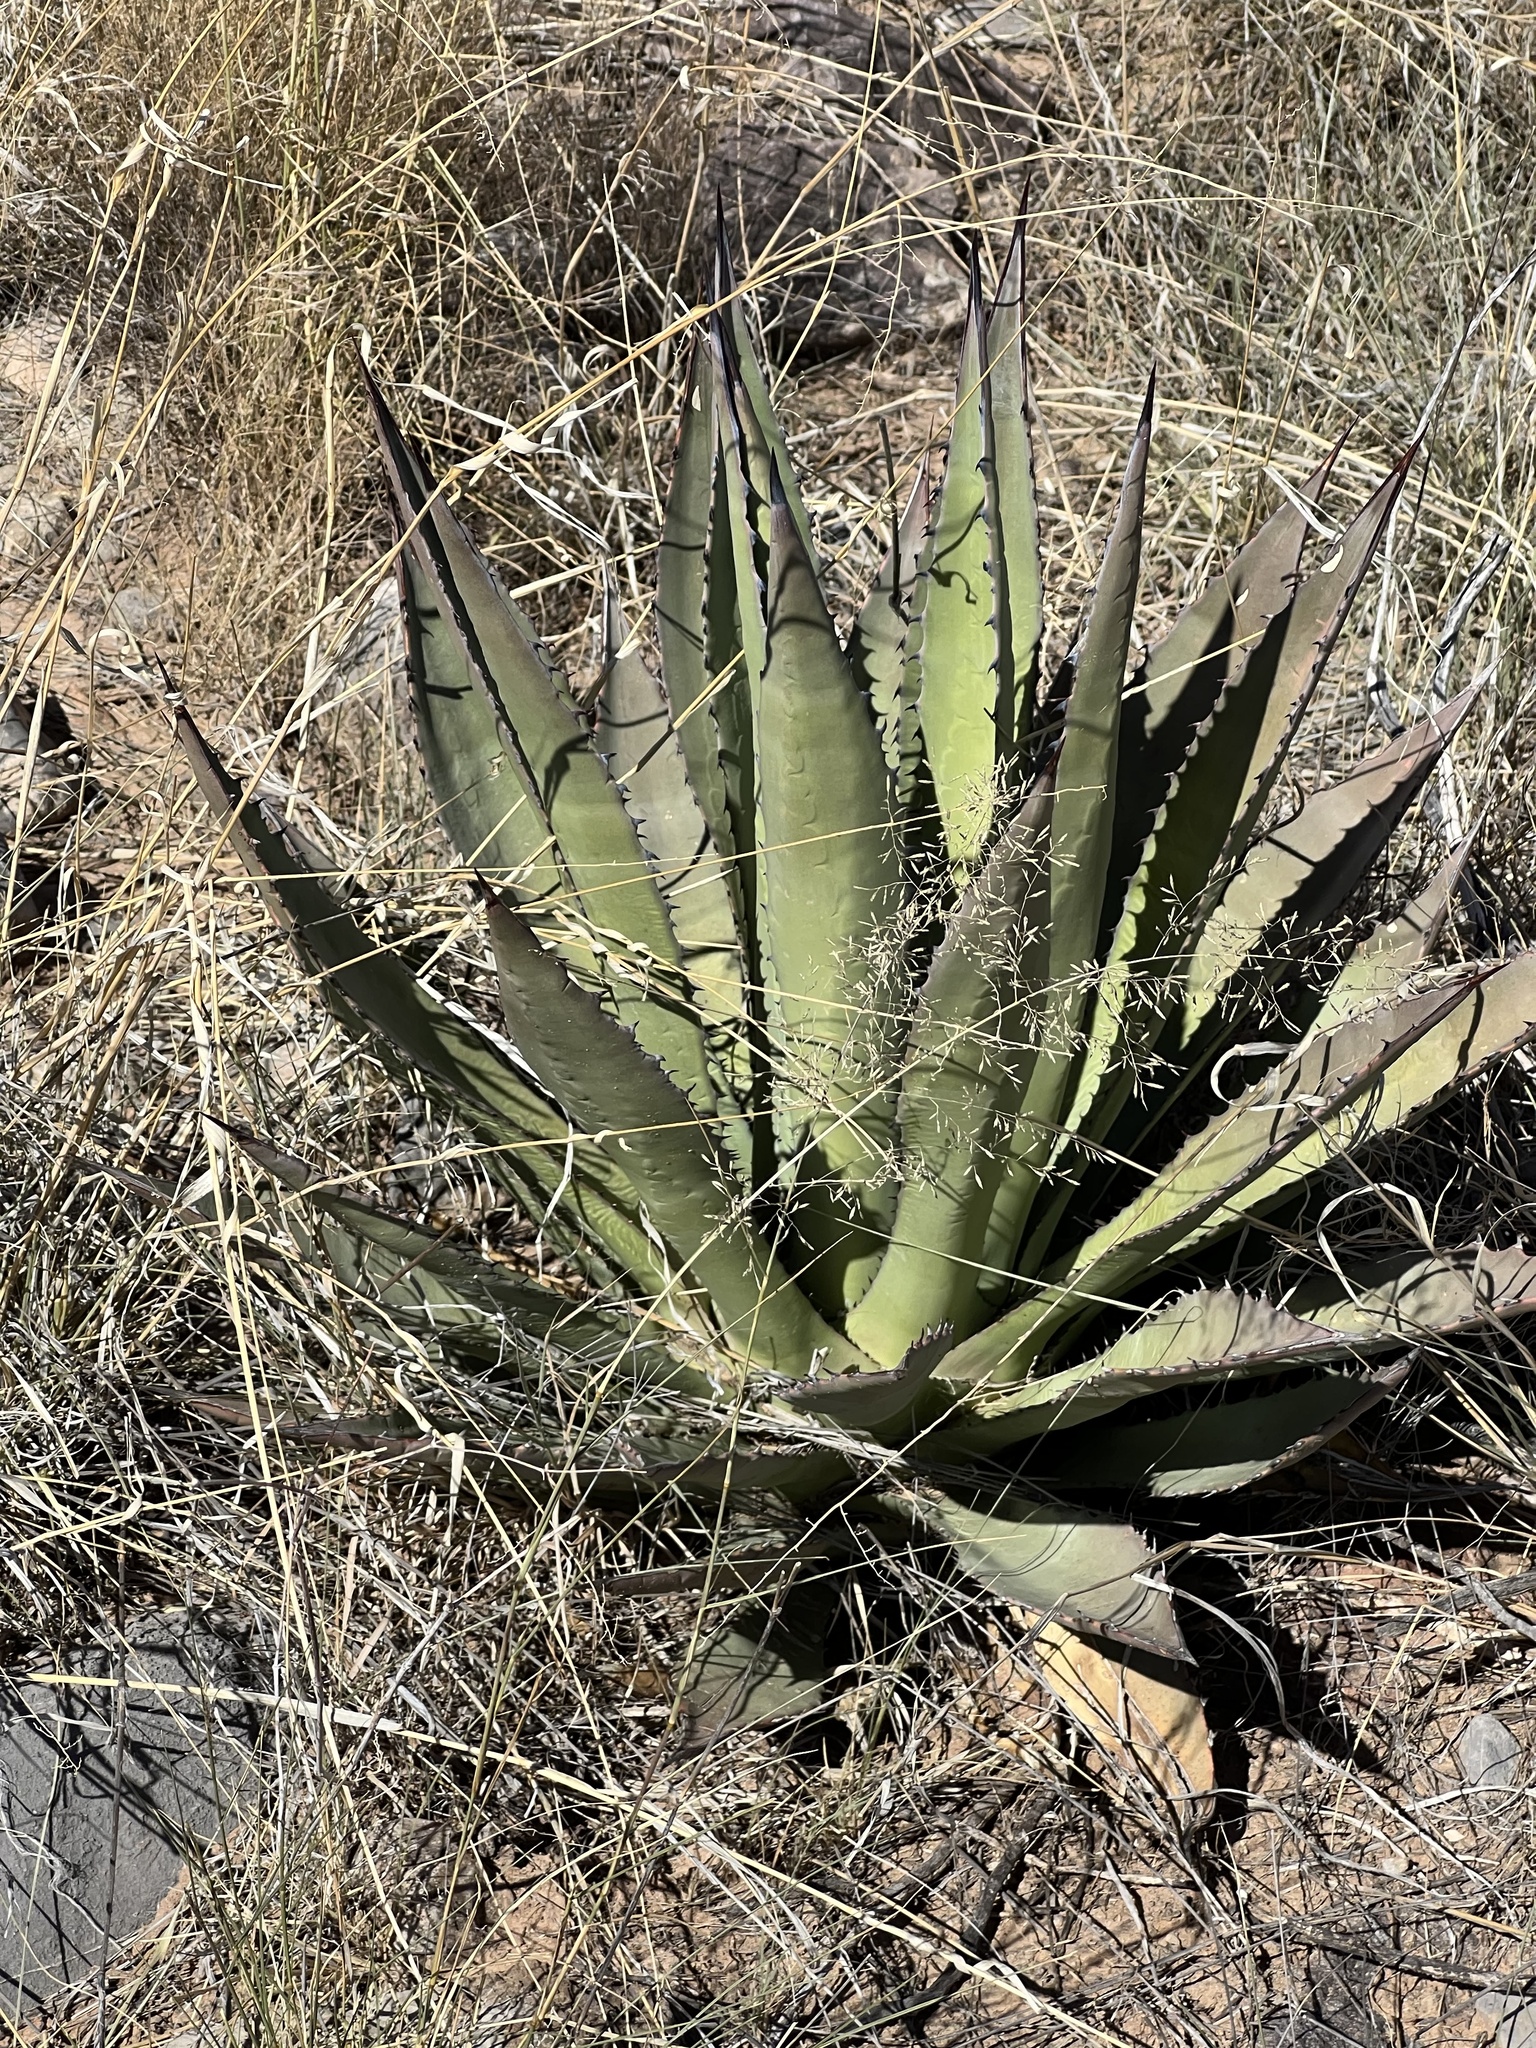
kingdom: Plantae
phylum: Tracheophyta
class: Liliopsida
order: Asparagales
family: Asparagaceae
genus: Agave
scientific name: Agave palmeri
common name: Palmer agave
